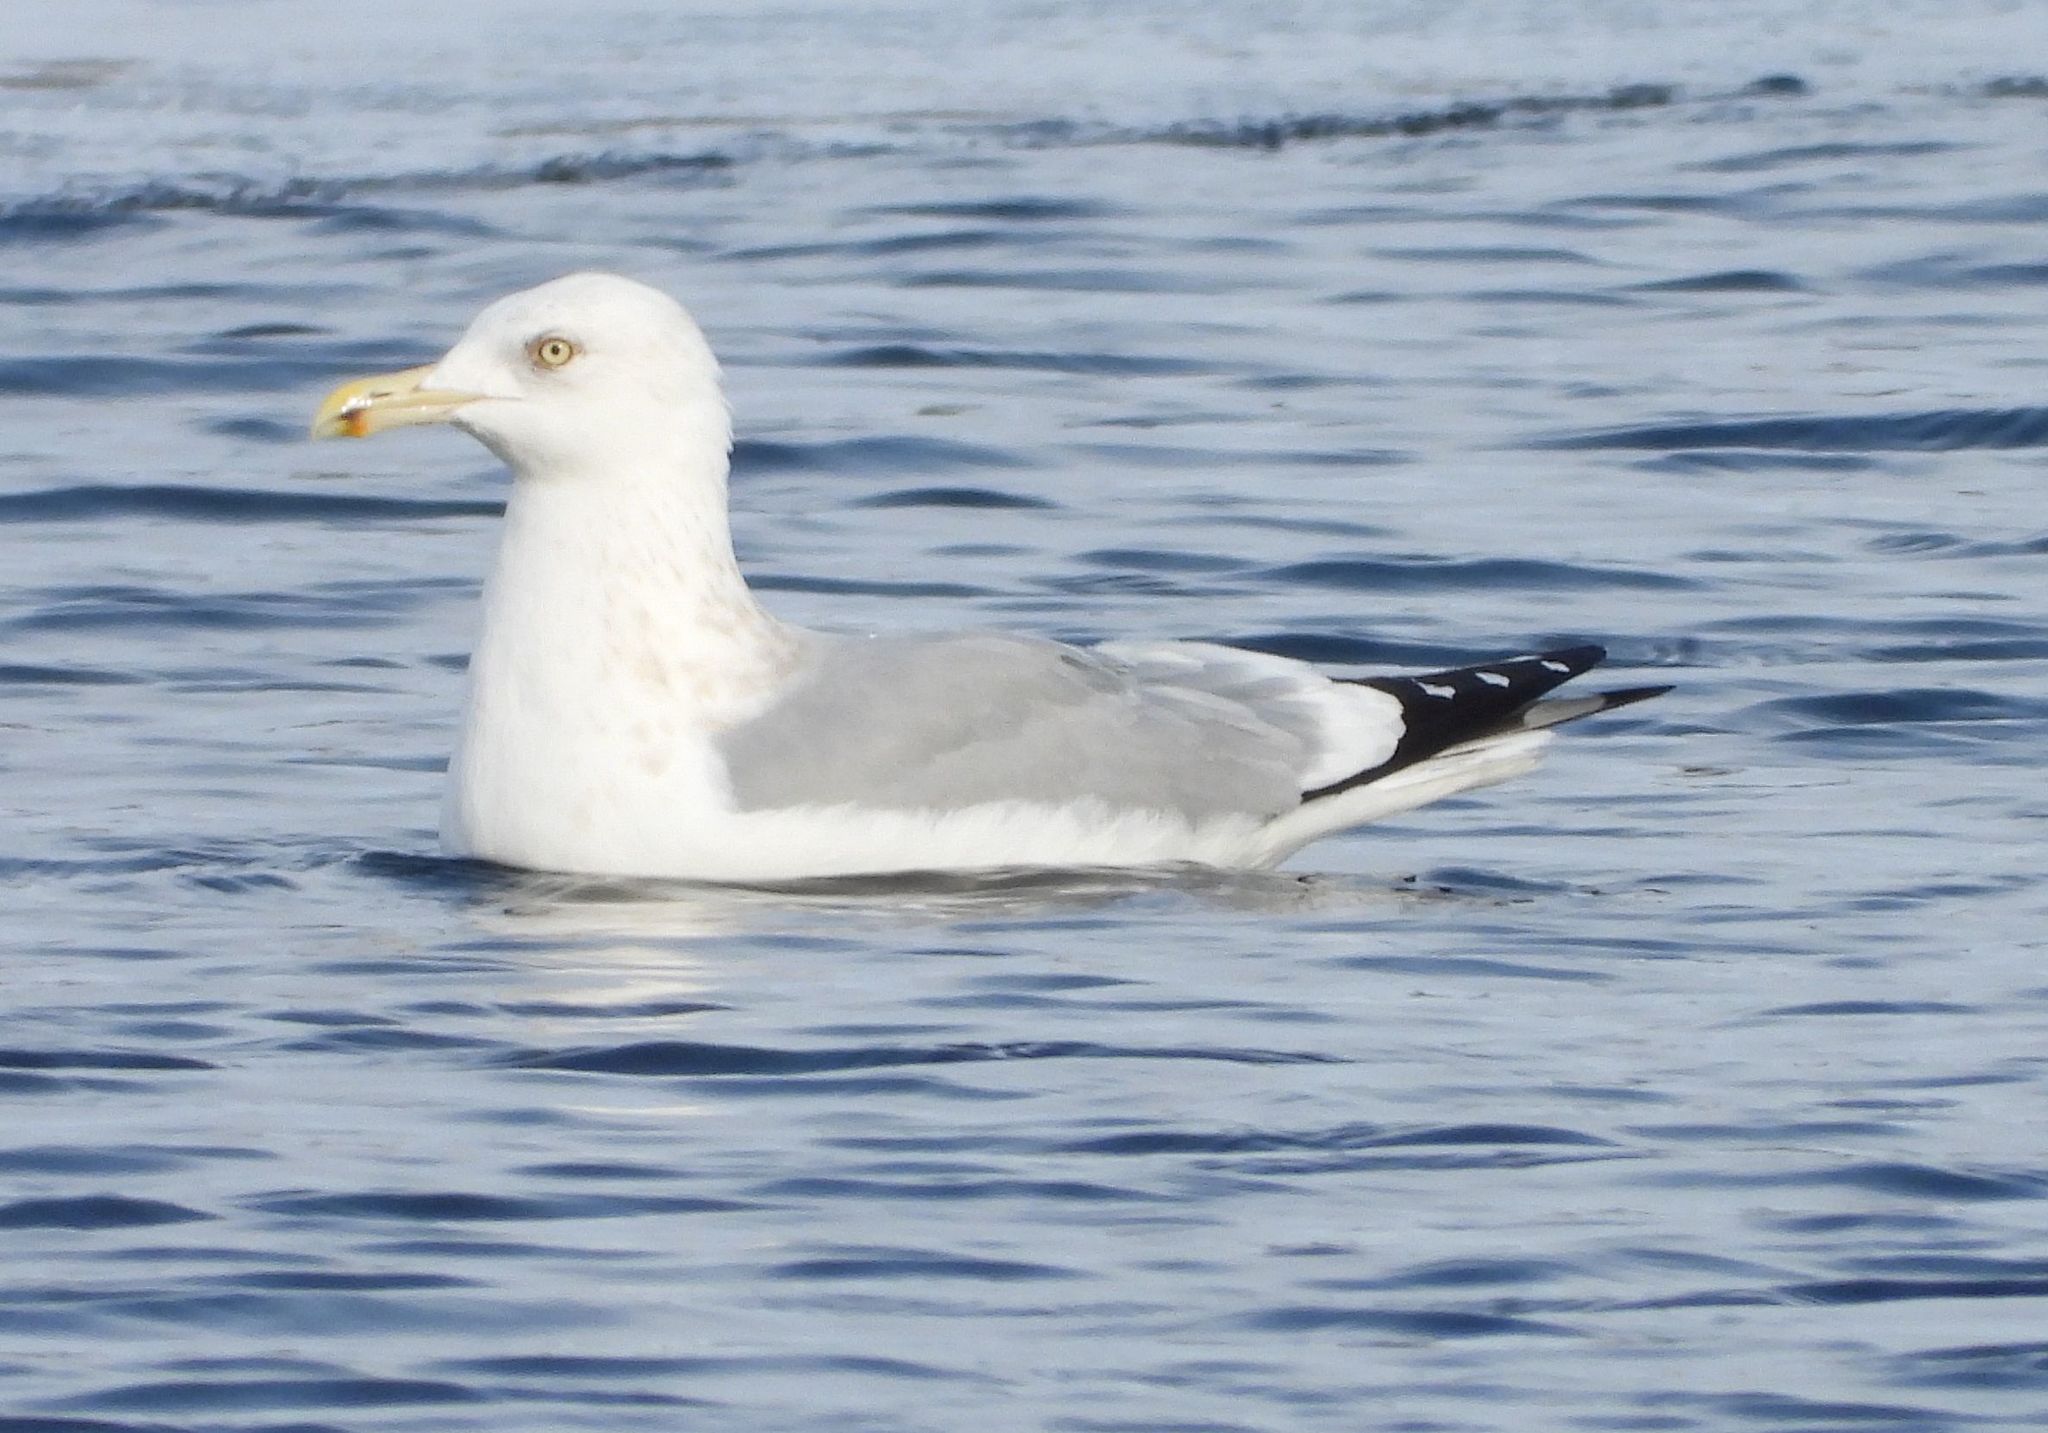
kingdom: Animalia
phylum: Chordata
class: Aves
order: Charadriiformes
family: Laridae
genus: Larus
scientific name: Larus argentatus
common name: Herring gull
